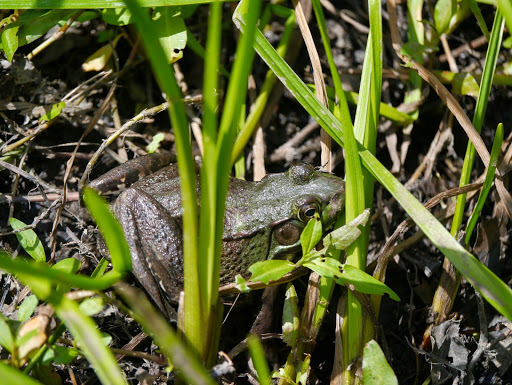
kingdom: Animalia
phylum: Chordata
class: Amphibia
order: Anura
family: Ranidae
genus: Lithobates
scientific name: Lithobates clamitans
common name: Green frog
